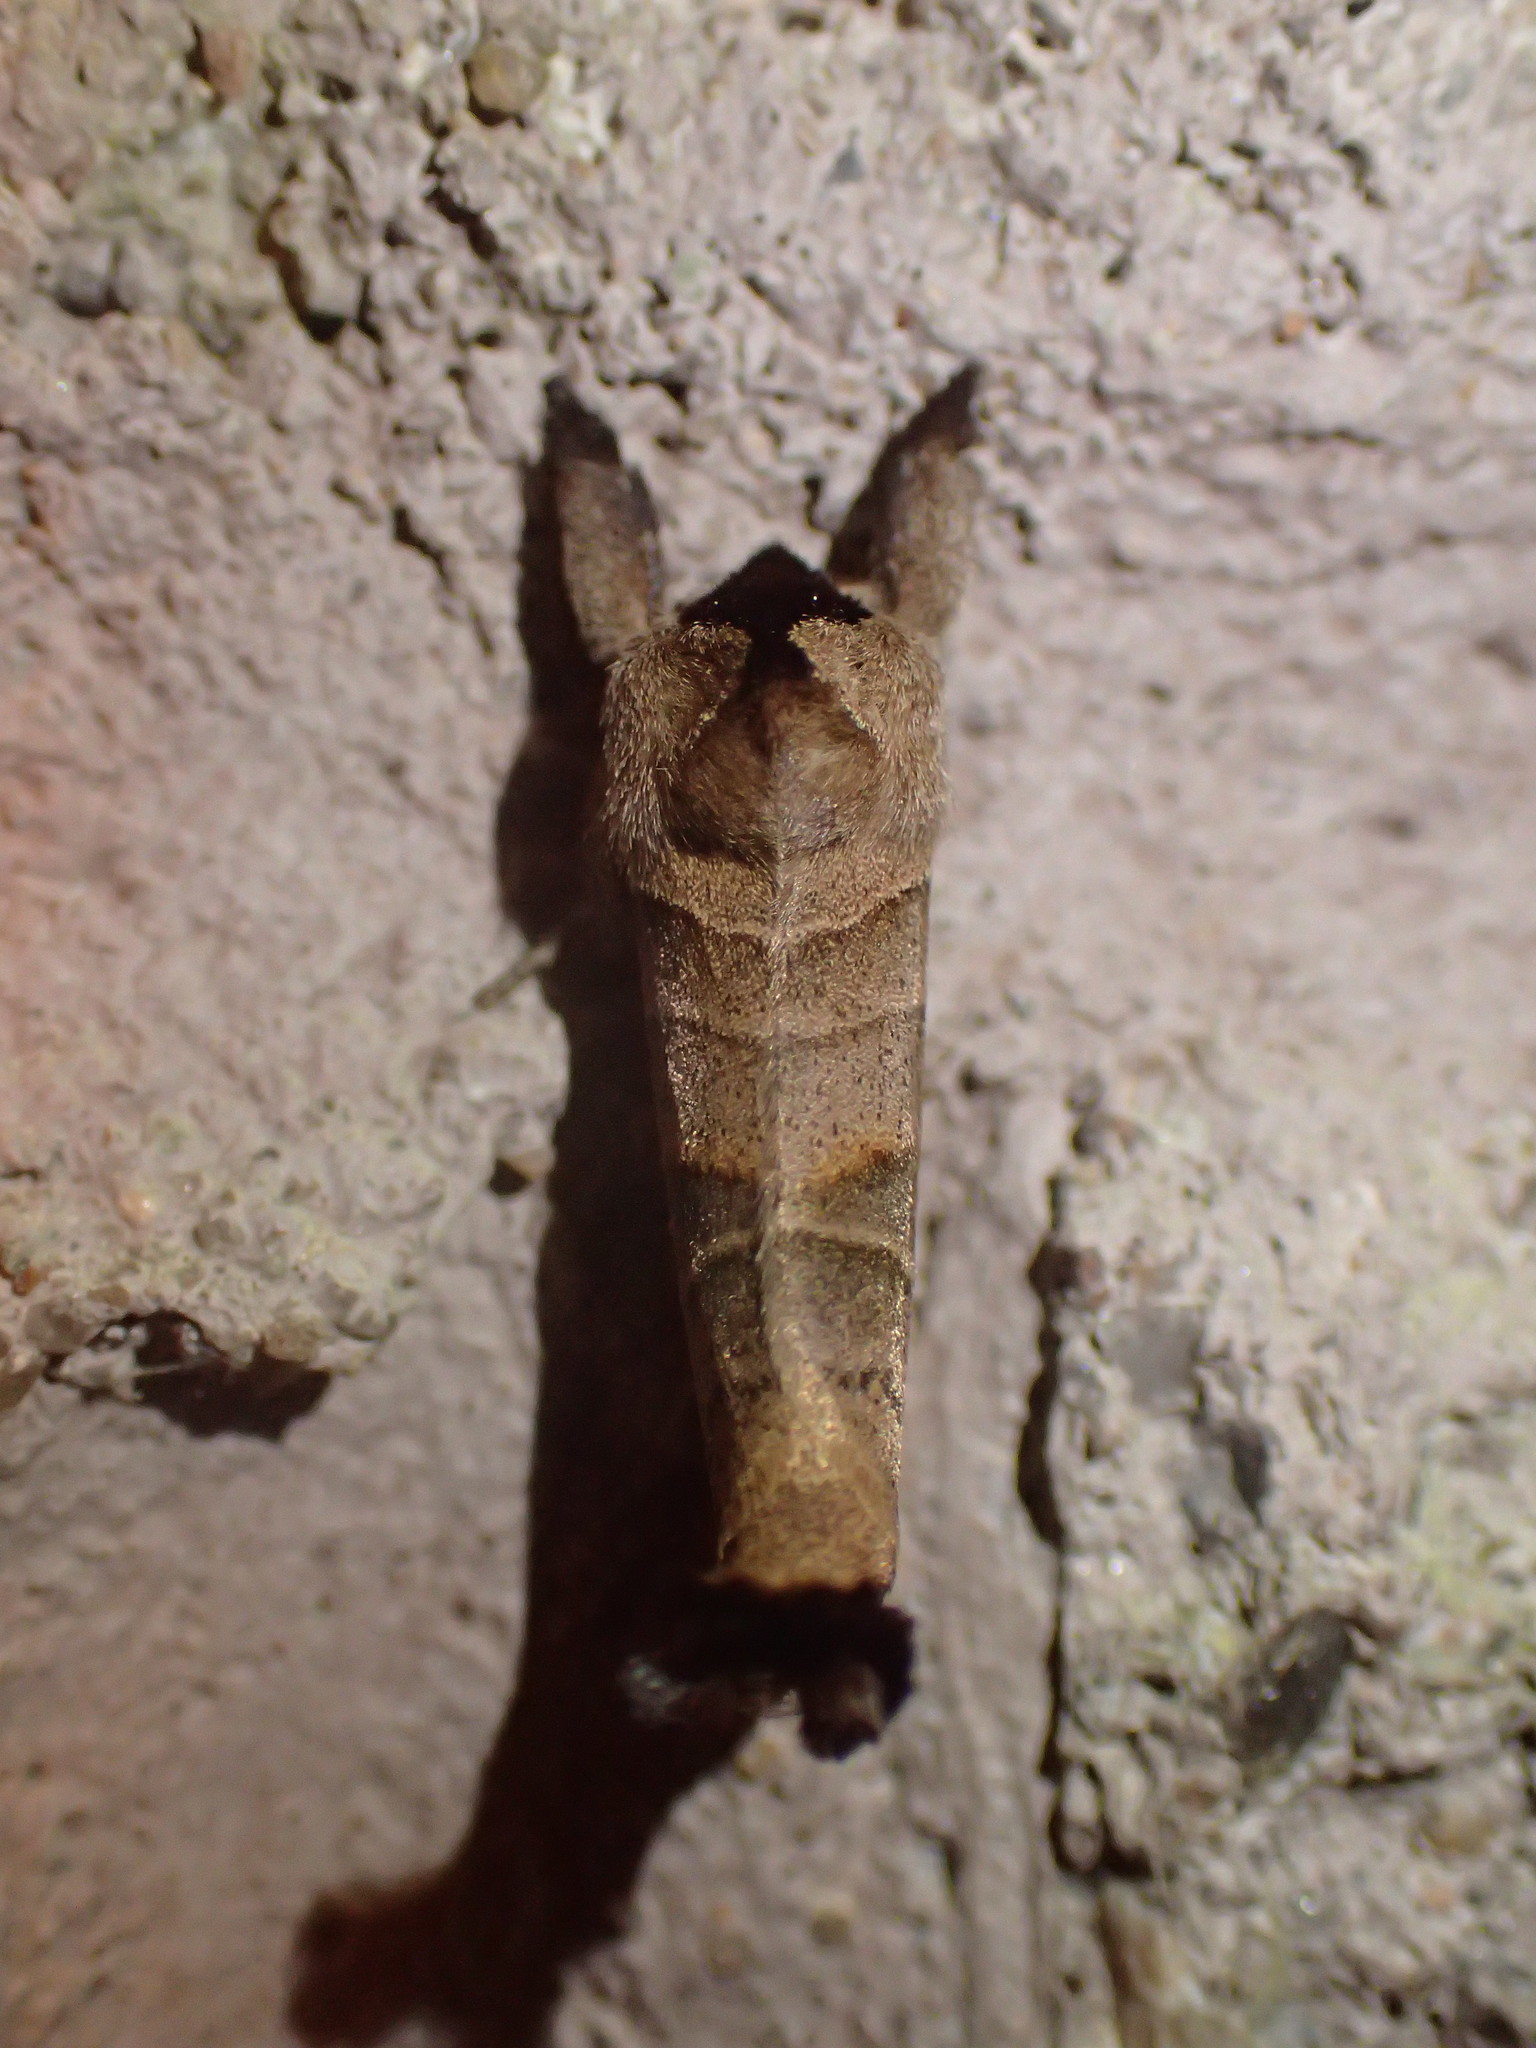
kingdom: Animalia
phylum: Arthropoda
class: Insecta
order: Lepidoptera
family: Notodontidae
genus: Clostera
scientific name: Clostera albosigma
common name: Sigmoid prominent
